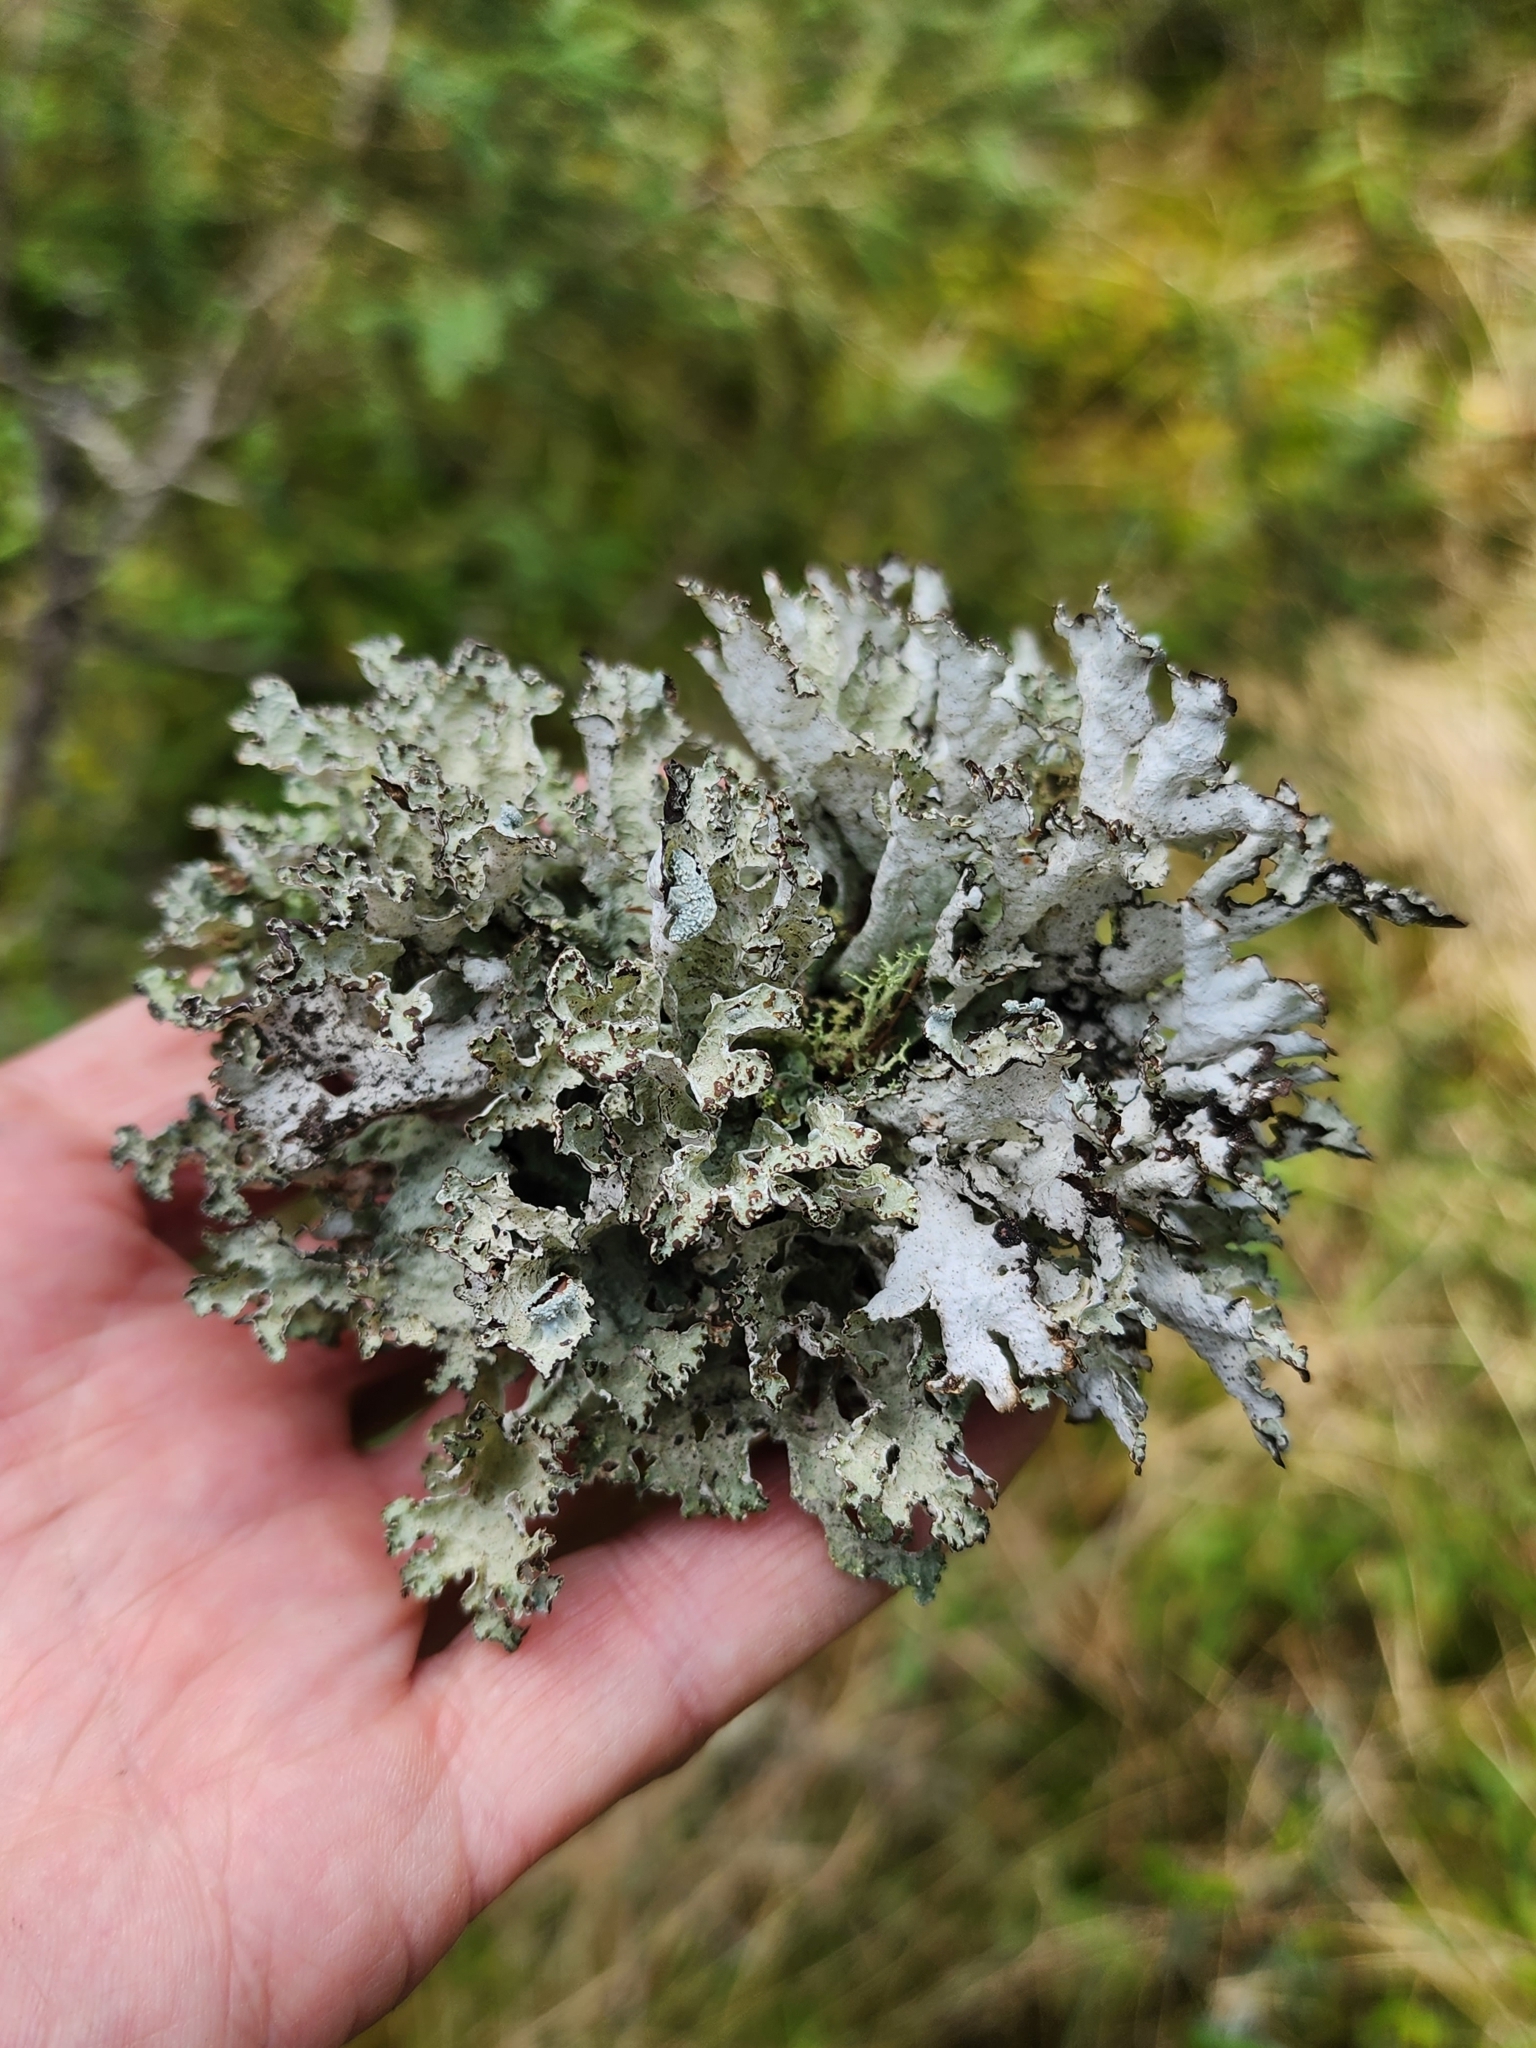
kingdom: Fungi
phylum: Ascomycota
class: Lecanoromycetes
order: Lecanorales
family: Parmeliaceae
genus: Platismatia
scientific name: Platismatia tuckermanii
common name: Crumpled rag lichen
